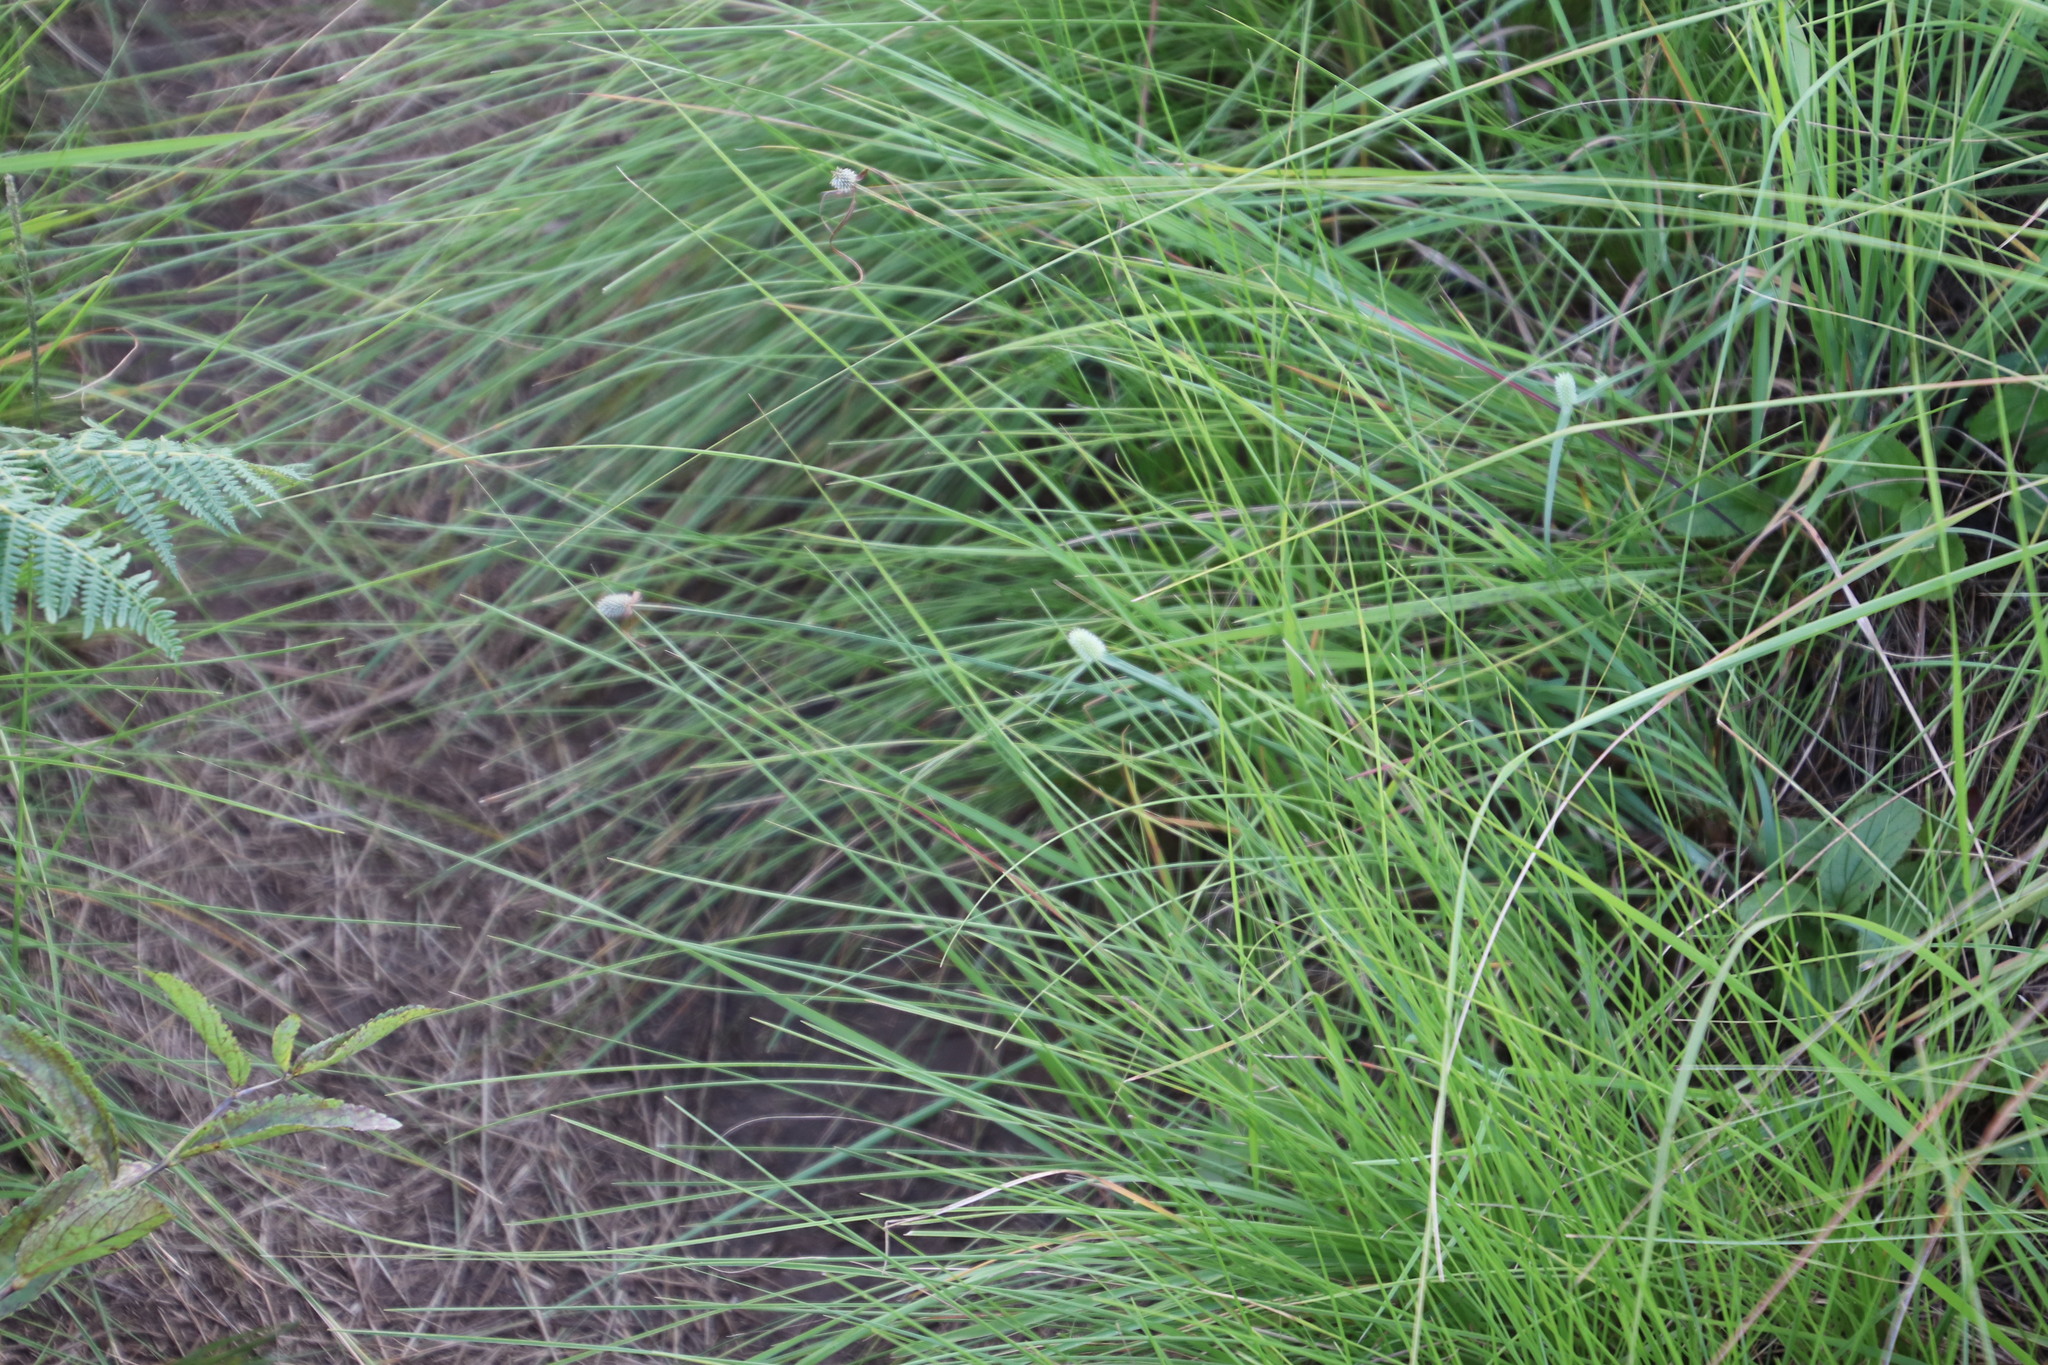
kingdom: Plantae
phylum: Tracheophyta
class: Liliopsida
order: Poales
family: Cyperaceae
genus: Cyperus
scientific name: Cyperus sesquiflorus
